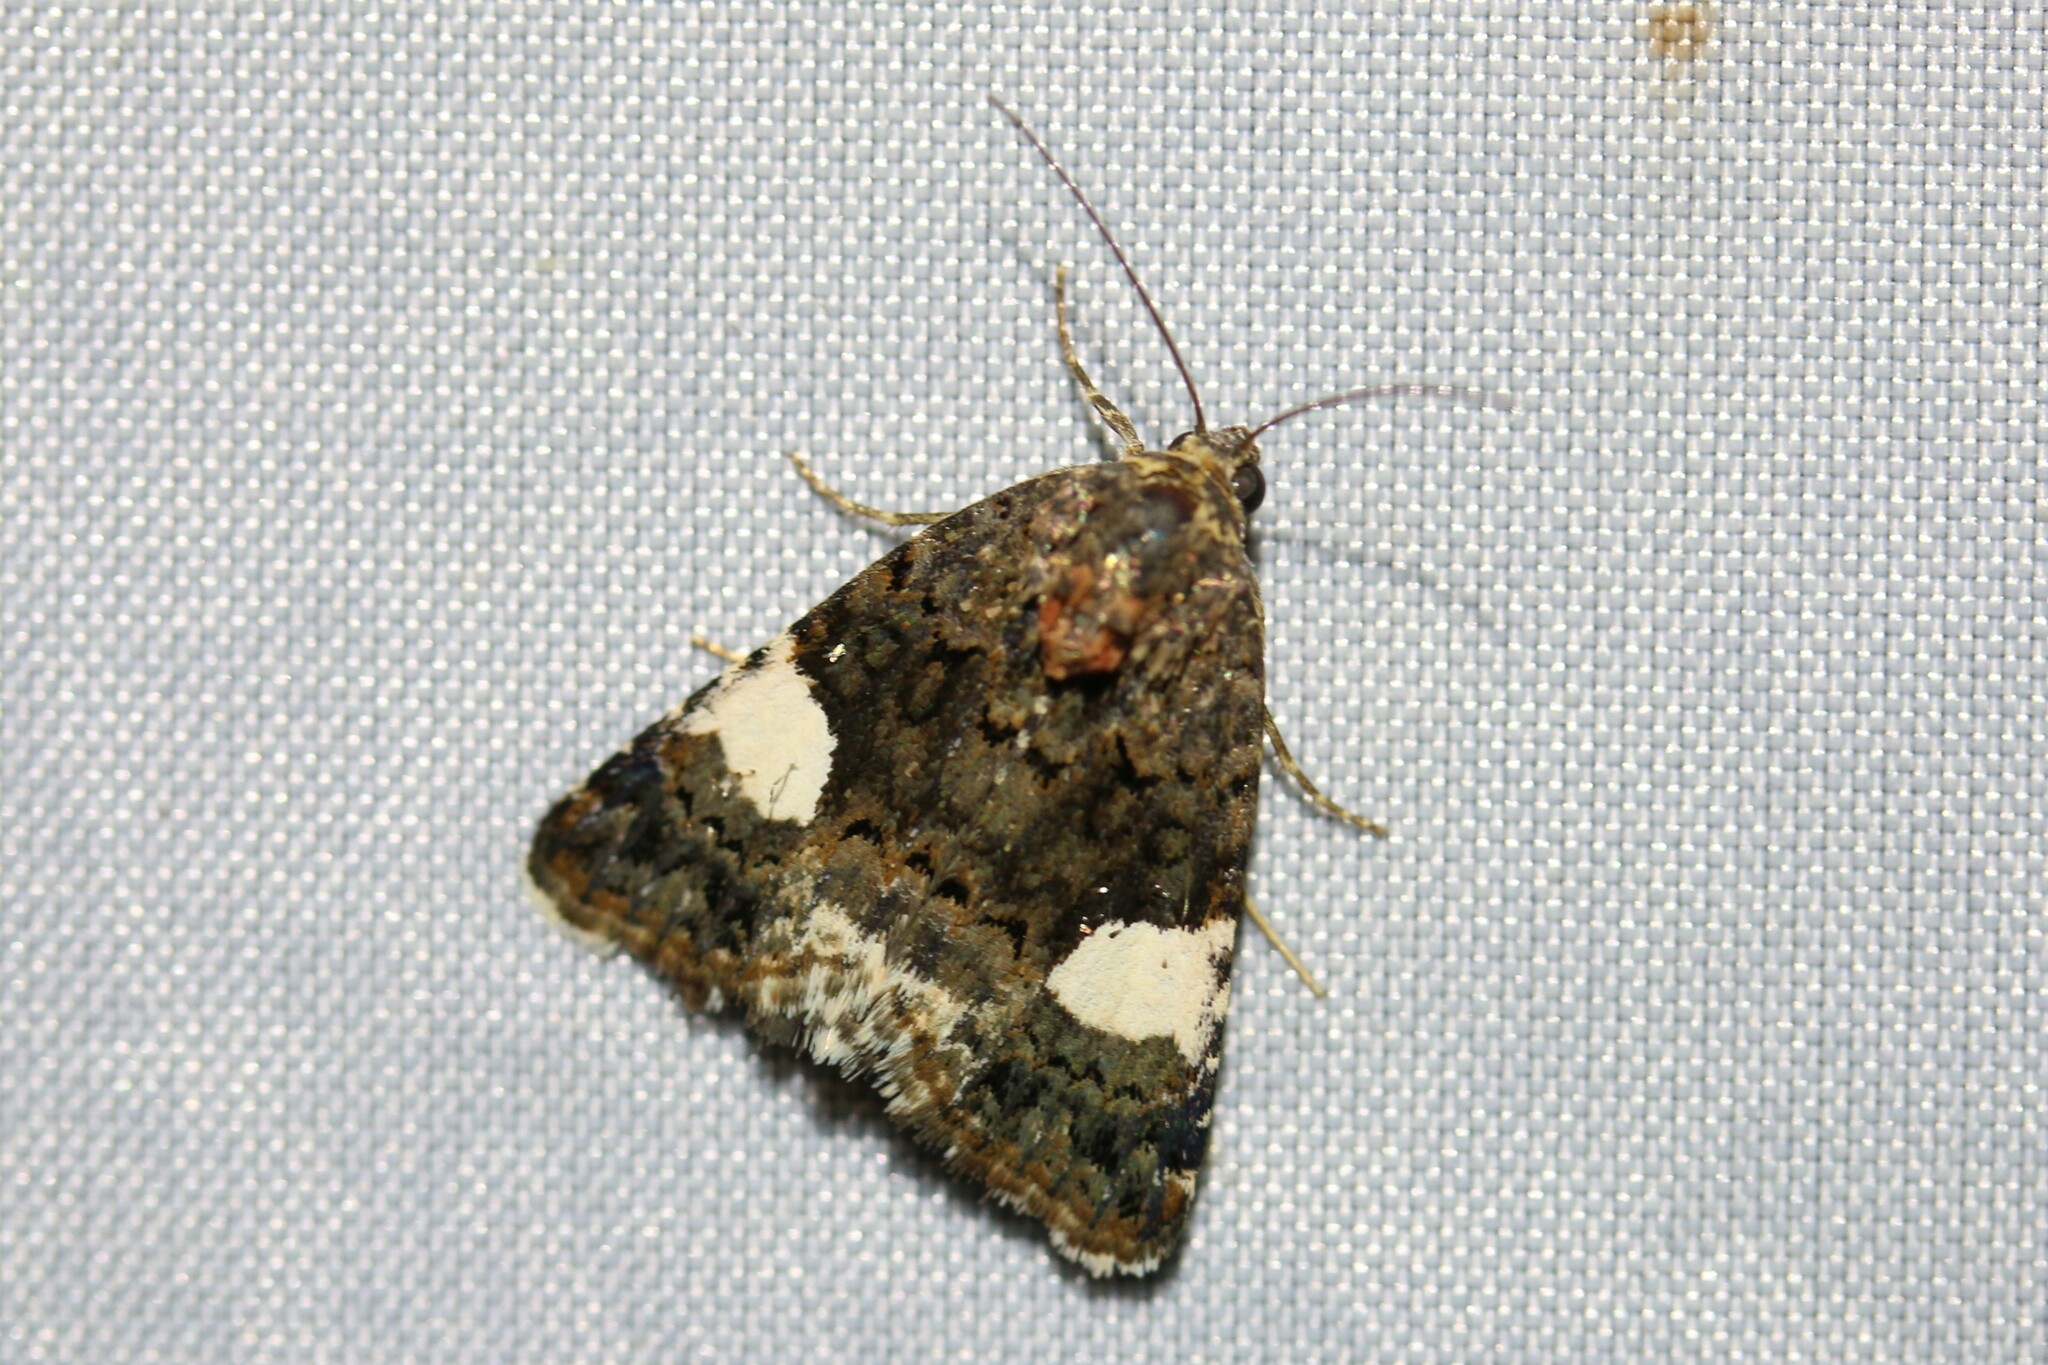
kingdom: Animalia
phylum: Arthropoda
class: Insecta
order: Lepidoptera
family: Erebidae
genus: Tyta
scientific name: Tyta luctuosa
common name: Four-spotted
